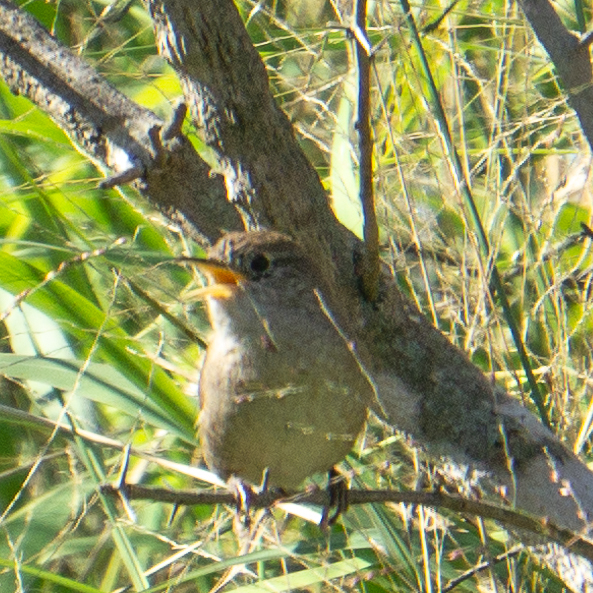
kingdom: Animalia
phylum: Chordata
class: Aves
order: Passeriformes
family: Troglodytidae
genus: Troglodytes
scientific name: Troglodytes aedon
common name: House wren
